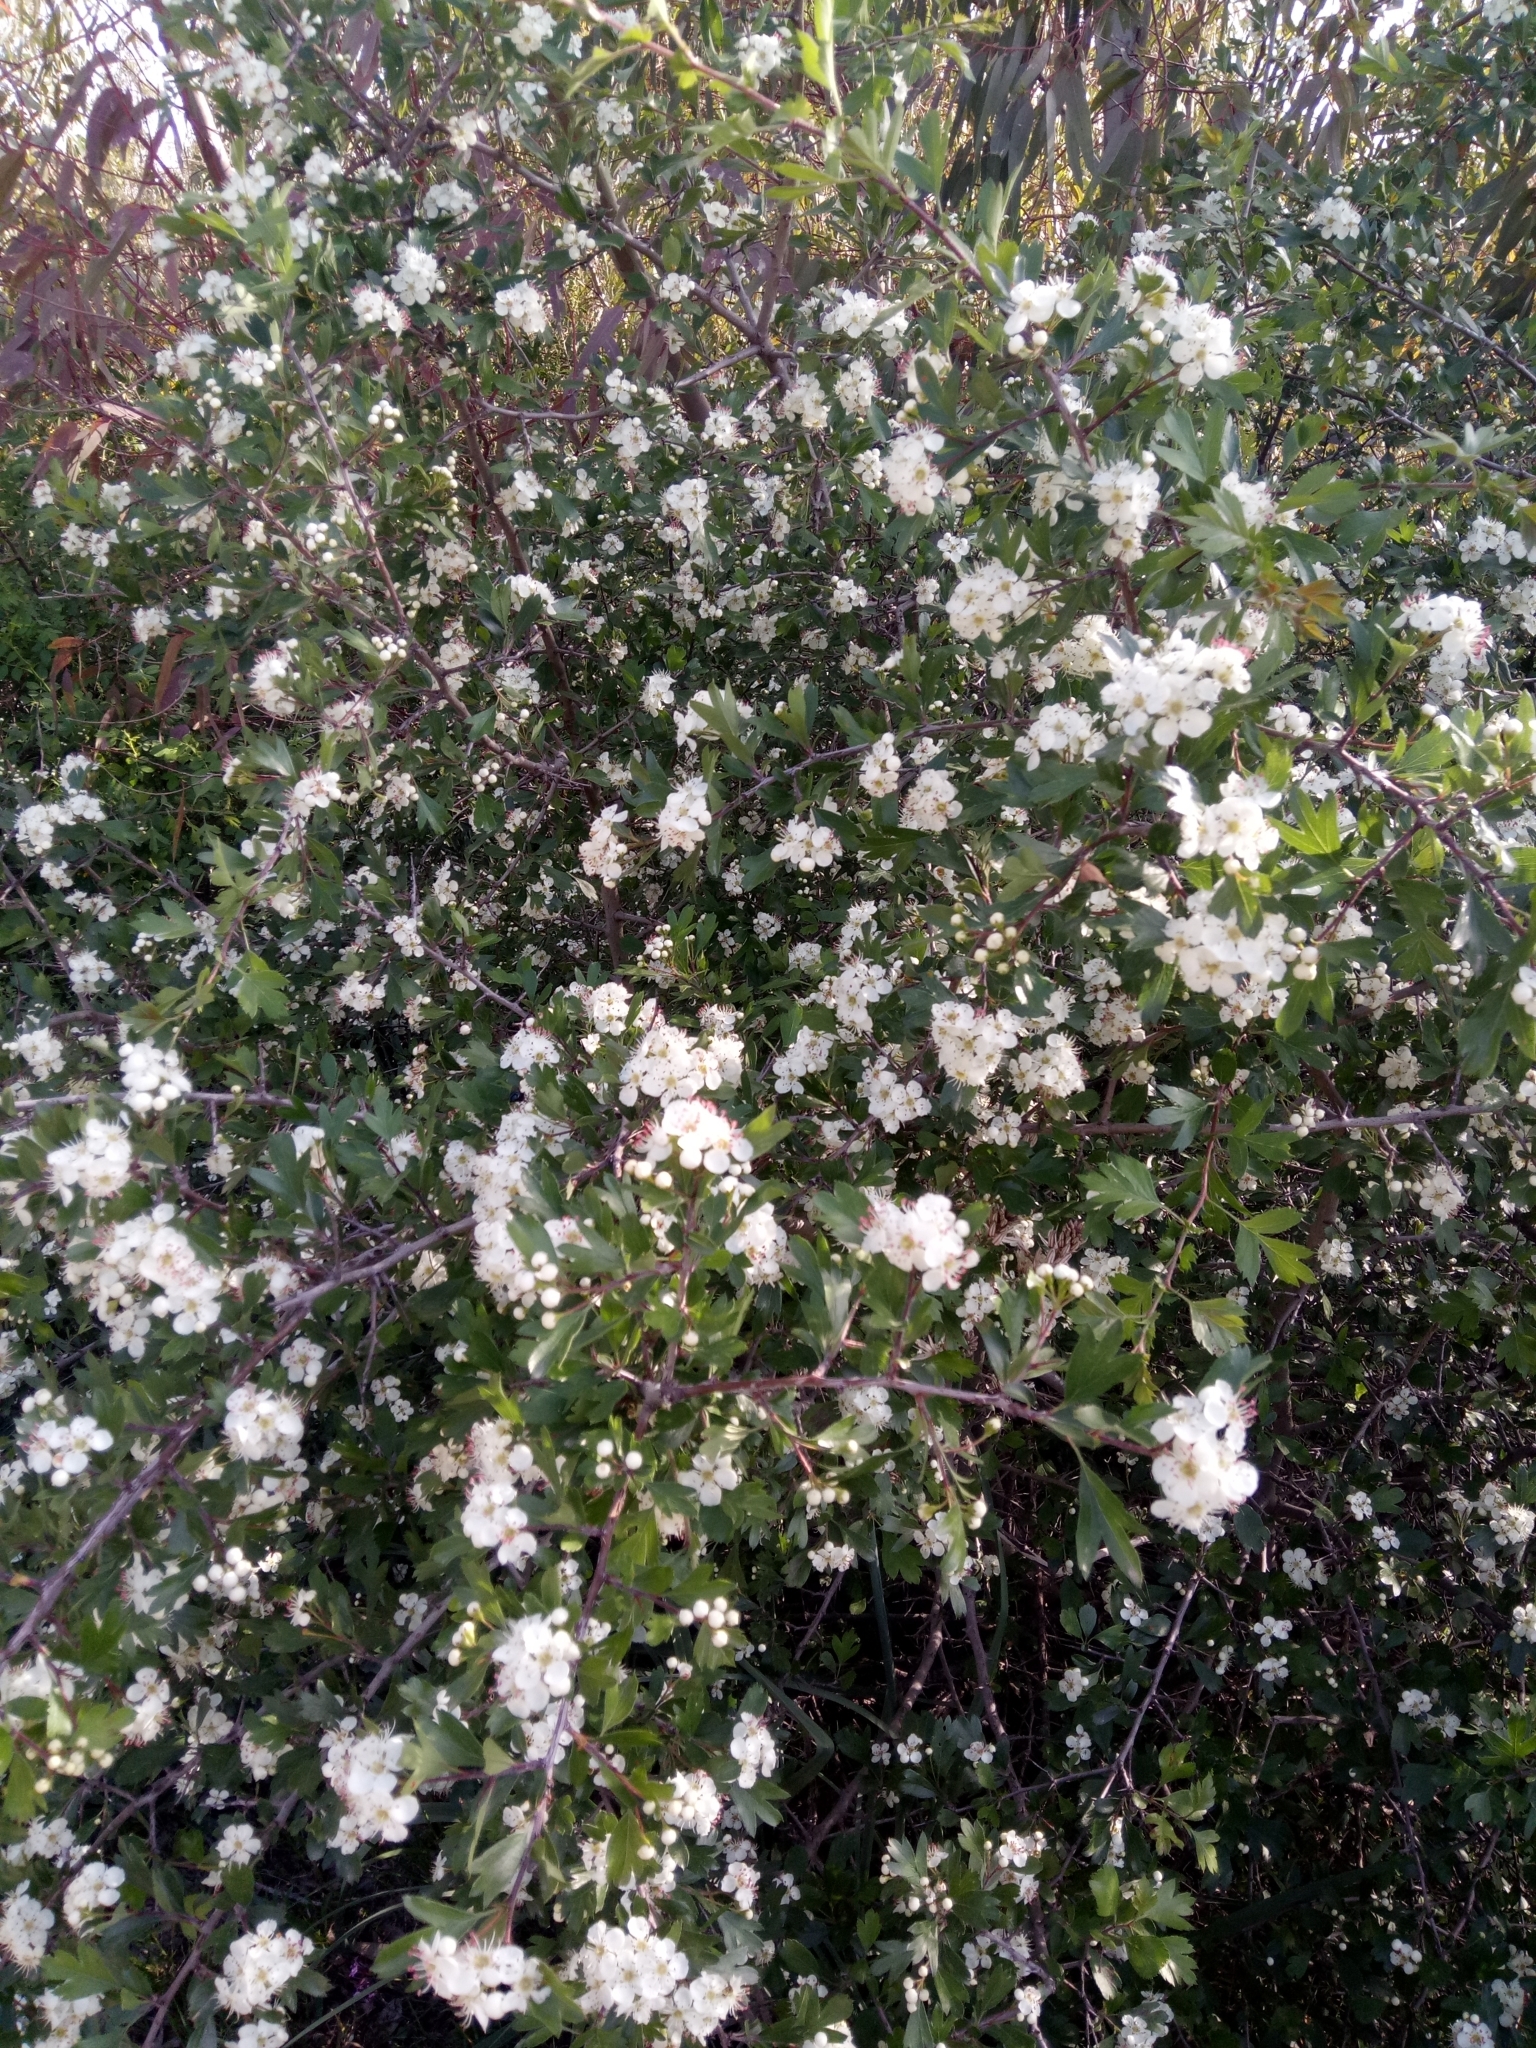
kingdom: Plantae
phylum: Tracheophyta
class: Magnoliopsida
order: Rosales
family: Rosaceae
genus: Crataegus
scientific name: Crataegus azarolus
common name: Azarole
